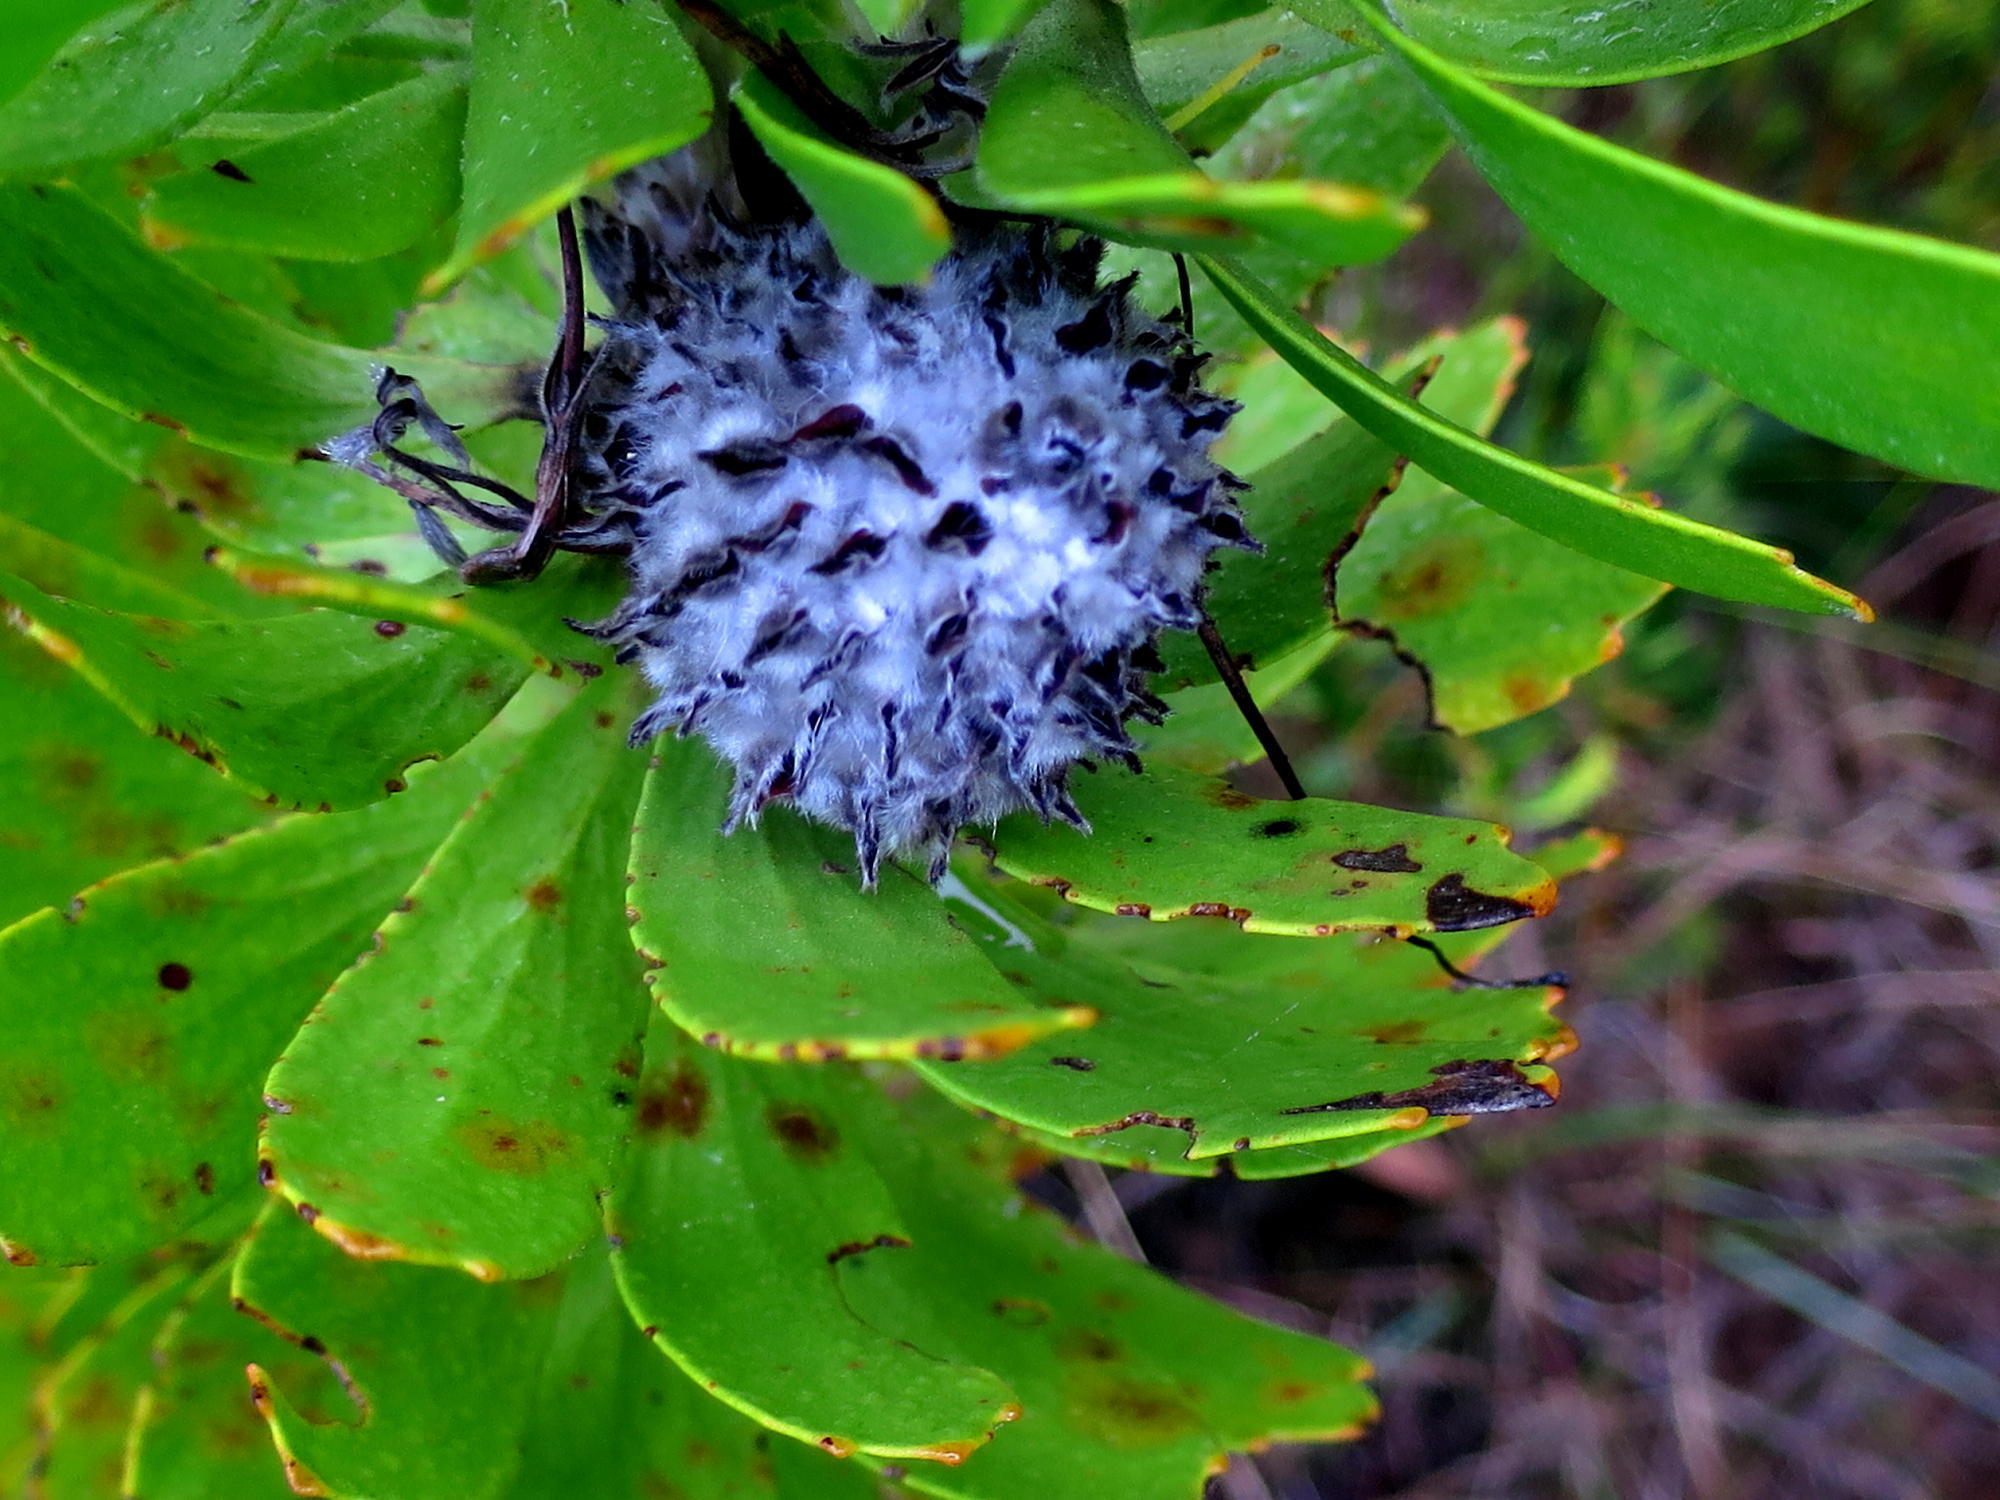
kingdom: Plantae
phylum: Tracheophyta
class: Magnoliopsida
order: Proteales
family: Proteaceae
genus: Leucospermum
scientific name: Leucospermum praecox
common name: Mossel bay pincushion
